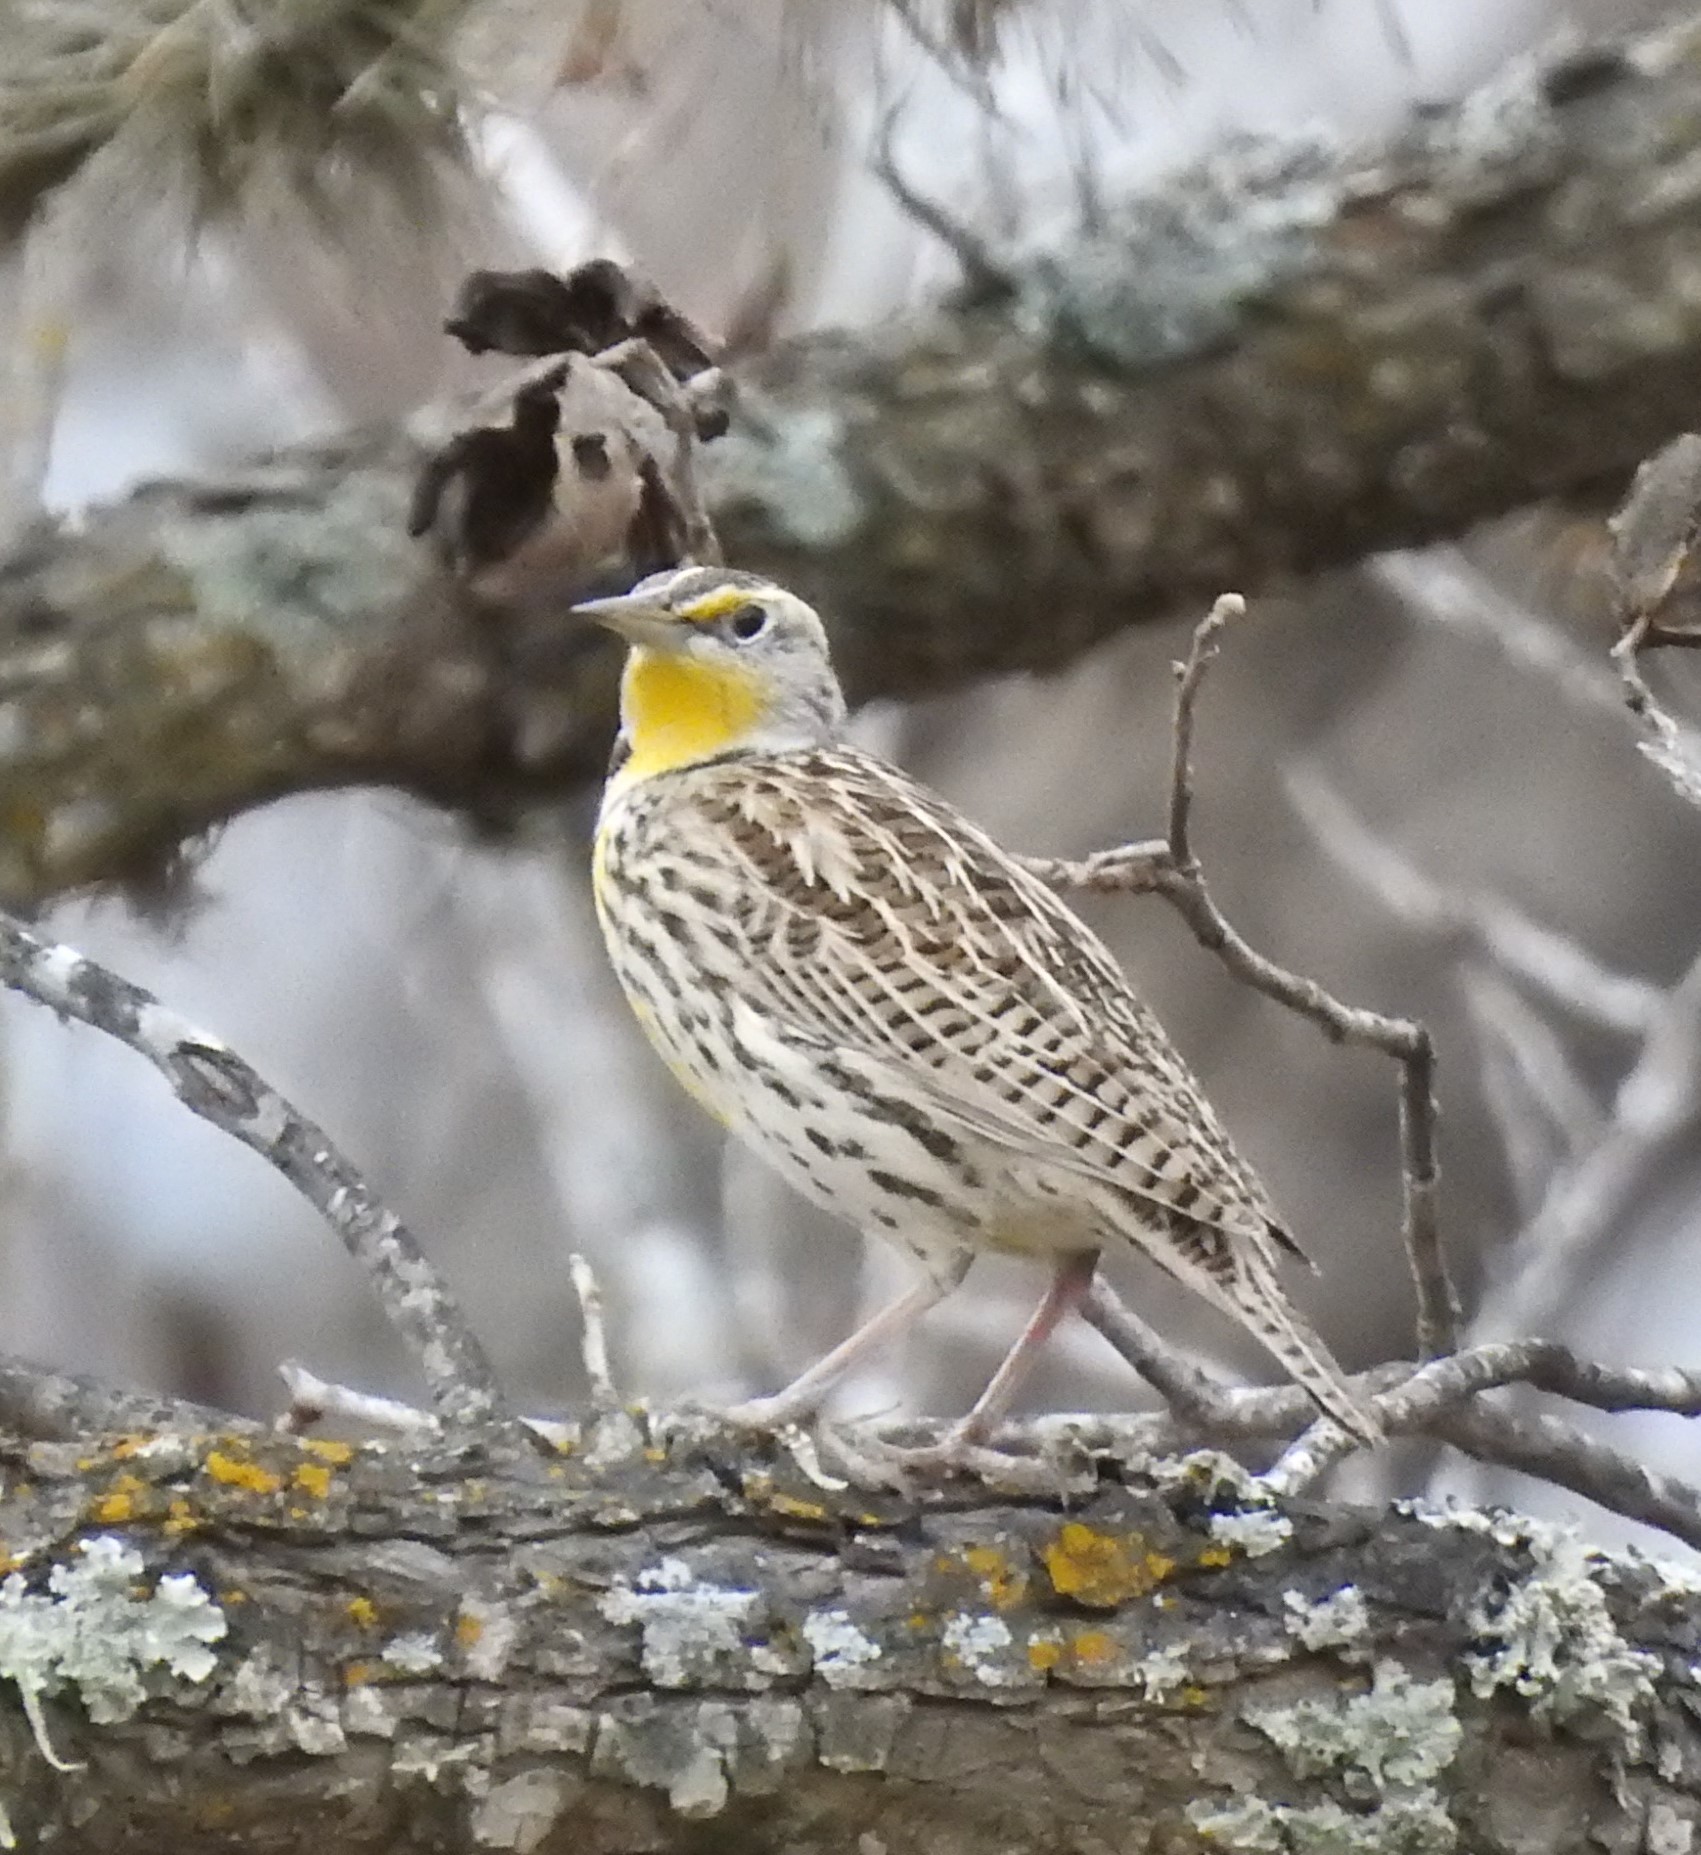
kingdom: Animalia
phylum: Chordata
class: Aves
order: Passeriformes
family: Icteridae
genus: Sturnella
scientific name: Sturnella neglecta
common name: Western meadowlark
